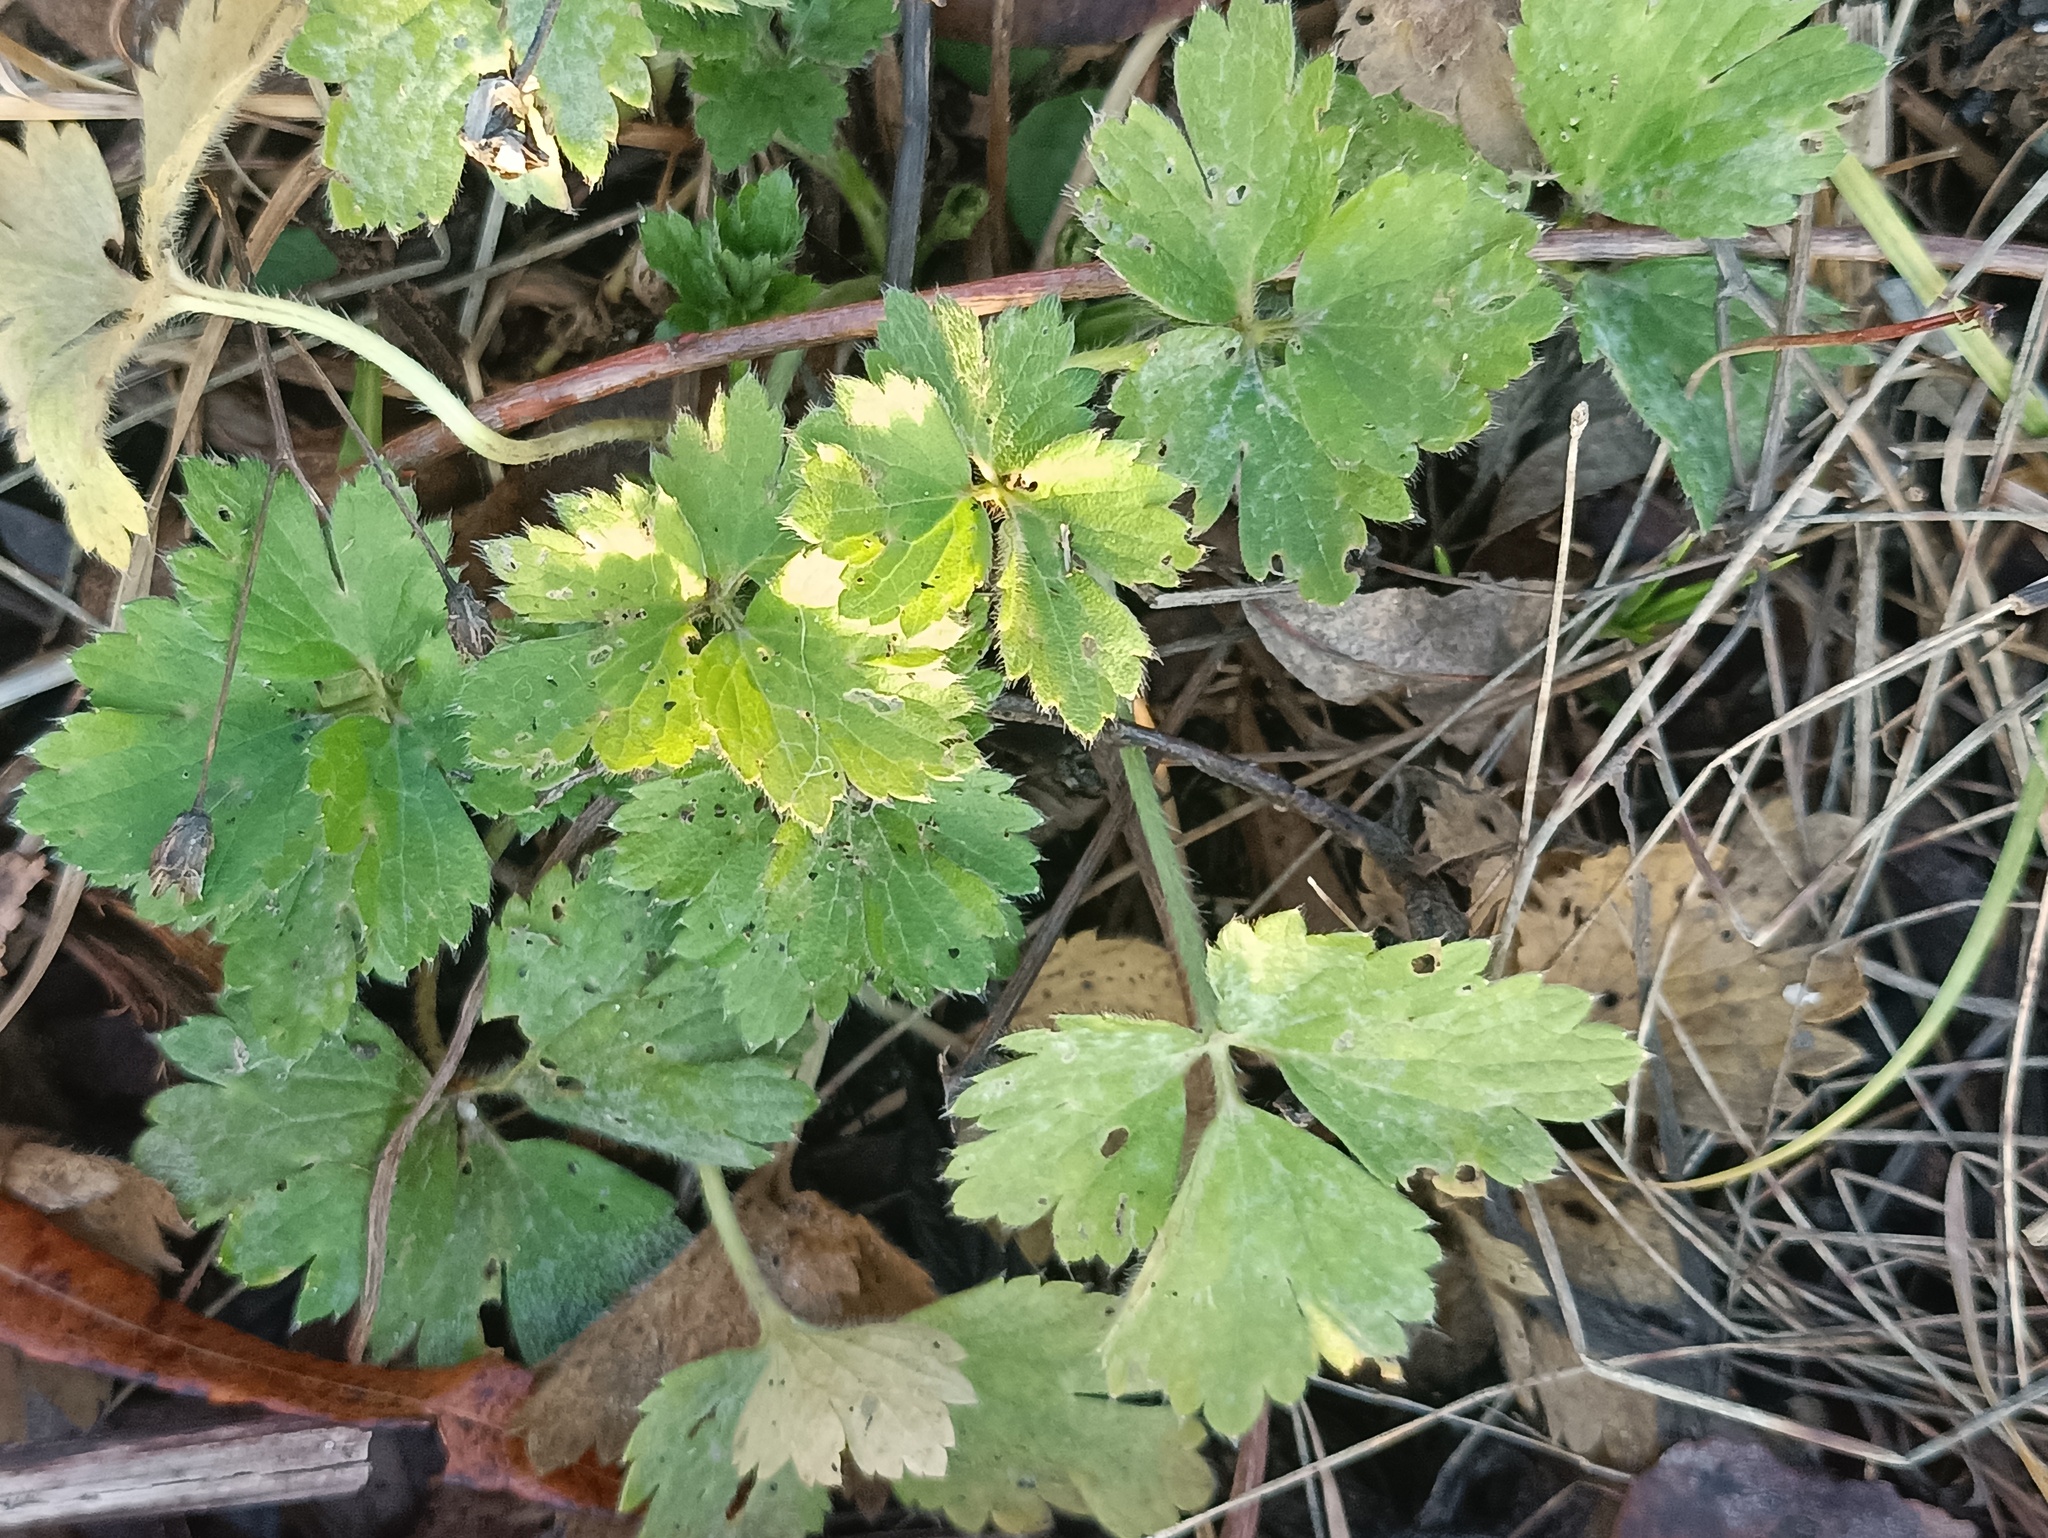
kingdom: Plantae
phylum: Tracheophyta
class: Magnoliopsida
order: Ranunculales
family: Ranunculaceae
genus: Ranunculus
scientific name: Ranunculus repens
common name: Creeping buttercup
